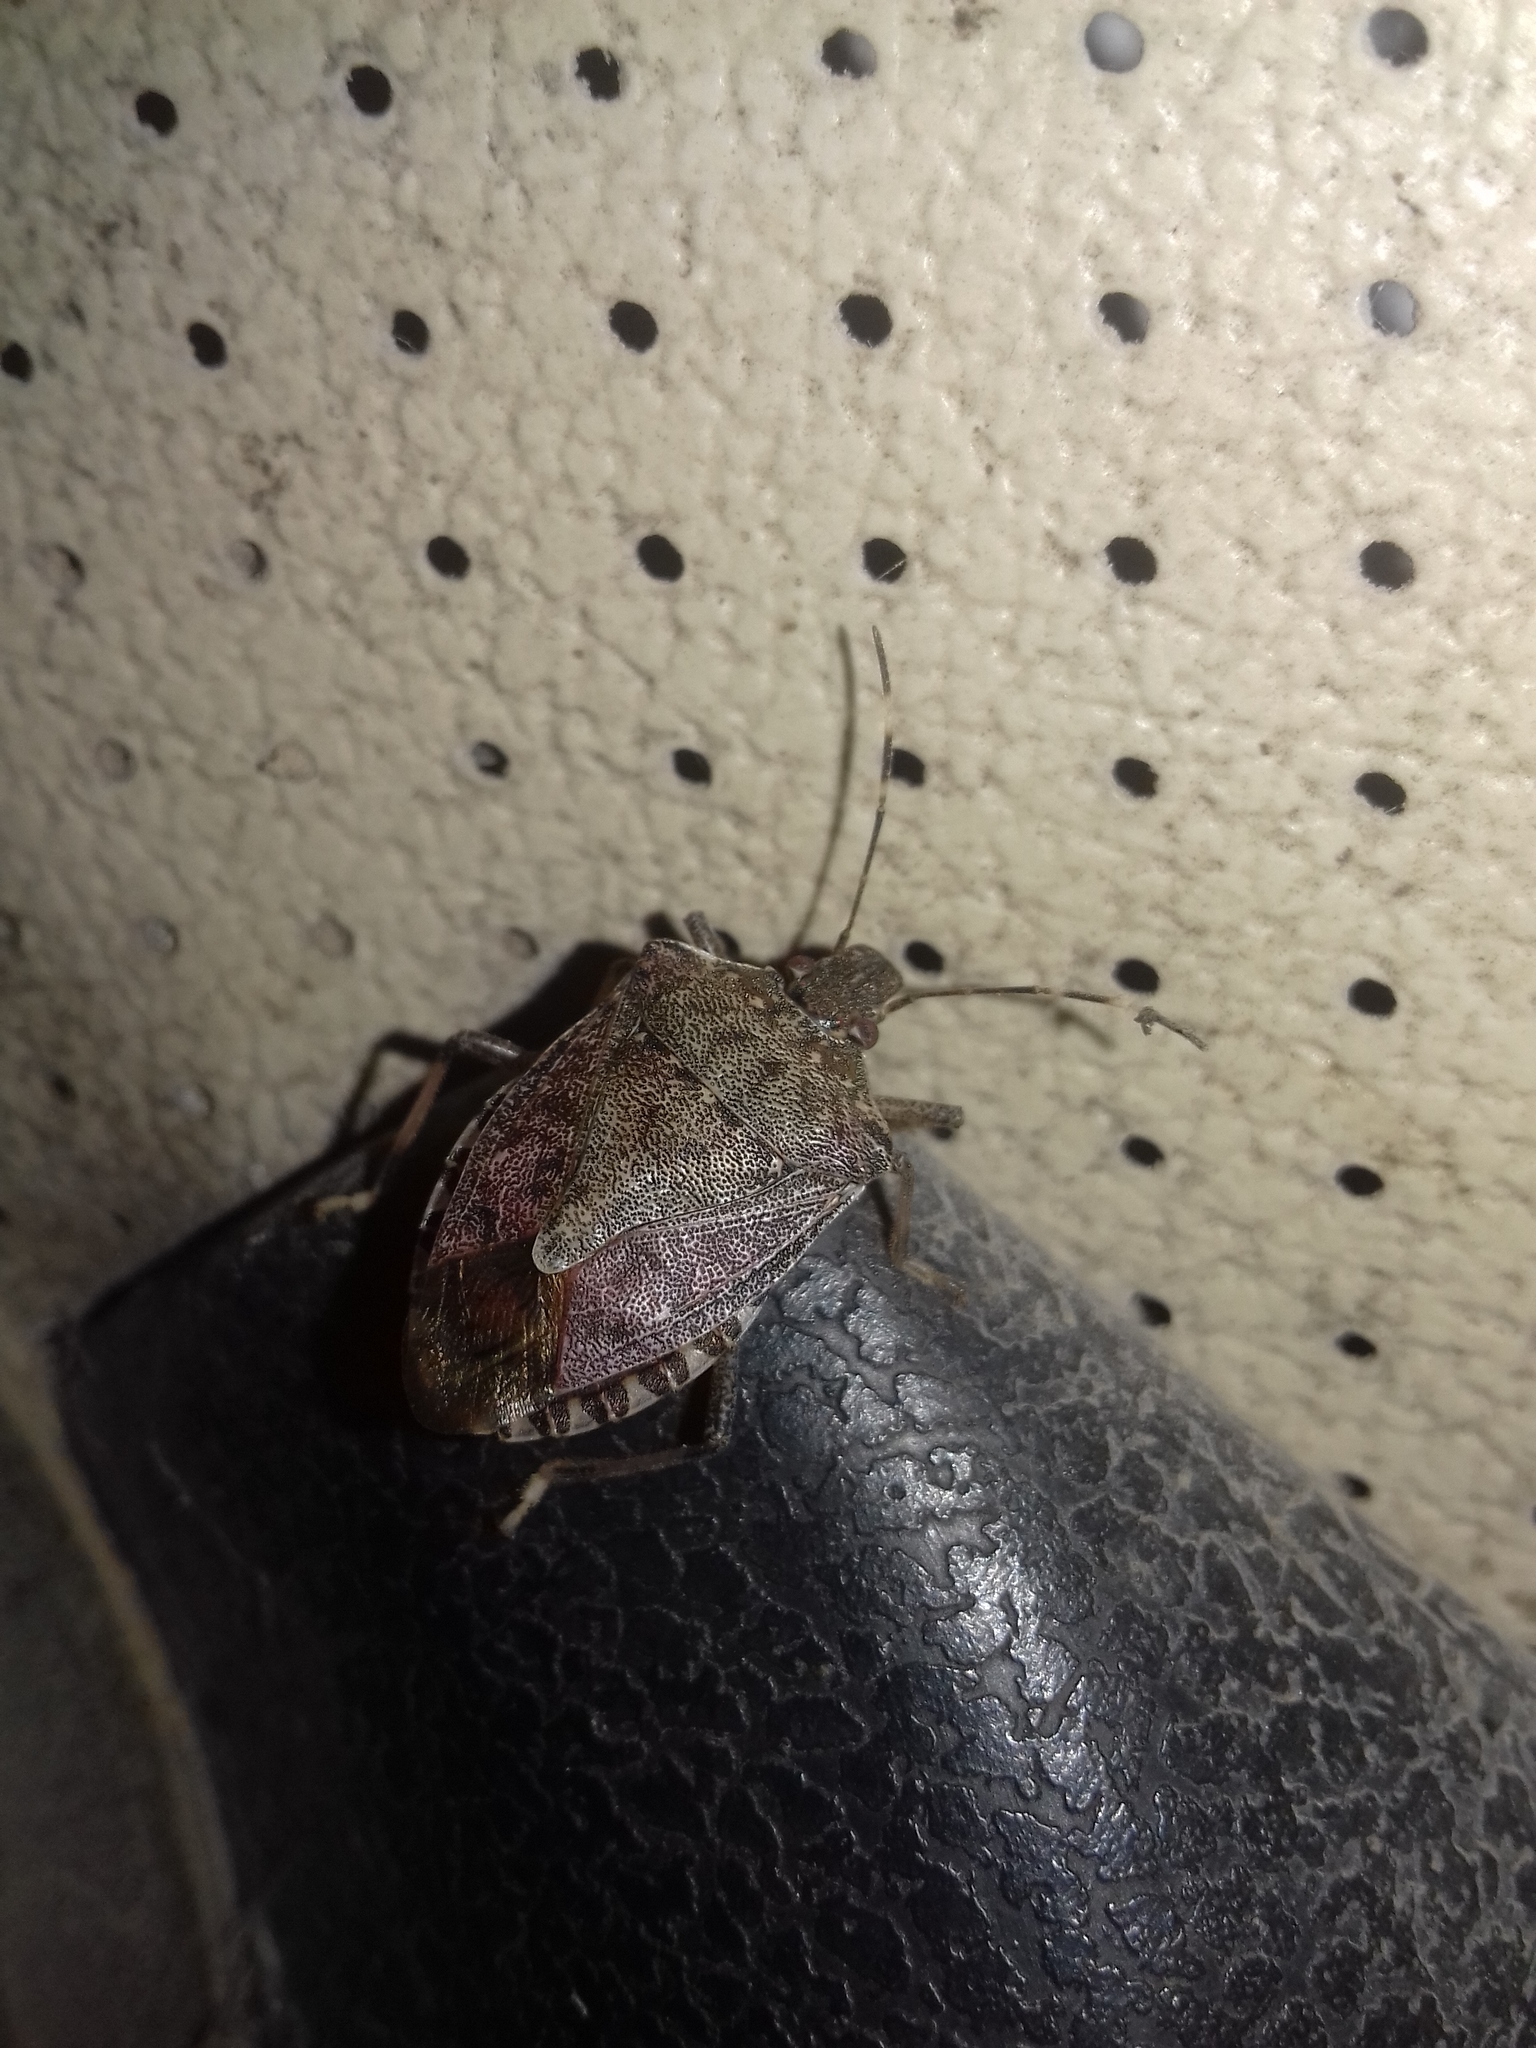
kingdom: Animalia
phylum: Arthropoda
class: Insecta
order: Hemiptera
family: Pentatomidae
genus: Halyomorpha
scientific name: Halyomorpha halys
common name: Brown marmorated stink bug
